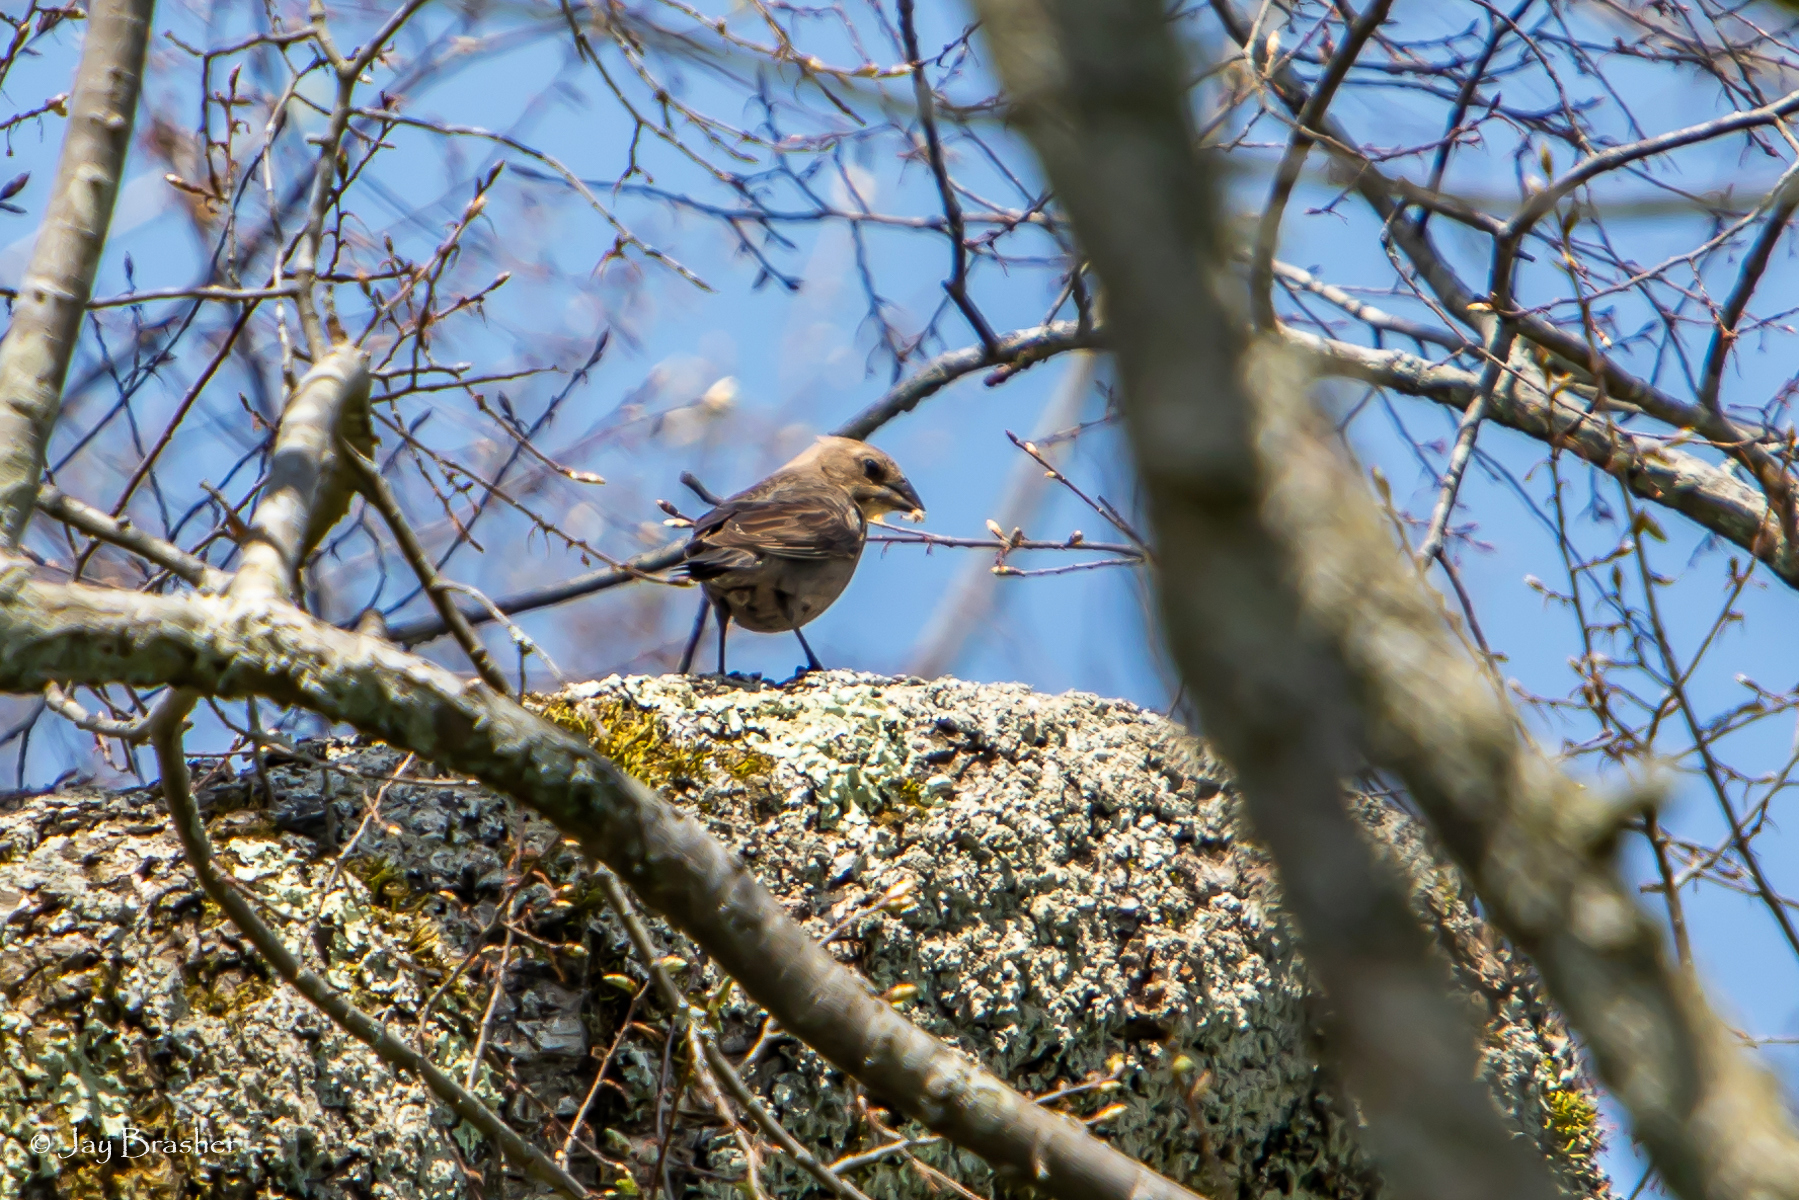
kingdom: Animalia
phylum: Chordata
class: Aves
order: Passeriformes
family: Icteridae
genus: Molothrus
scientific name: Molothrus ater
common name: Brown-headed cowbird
